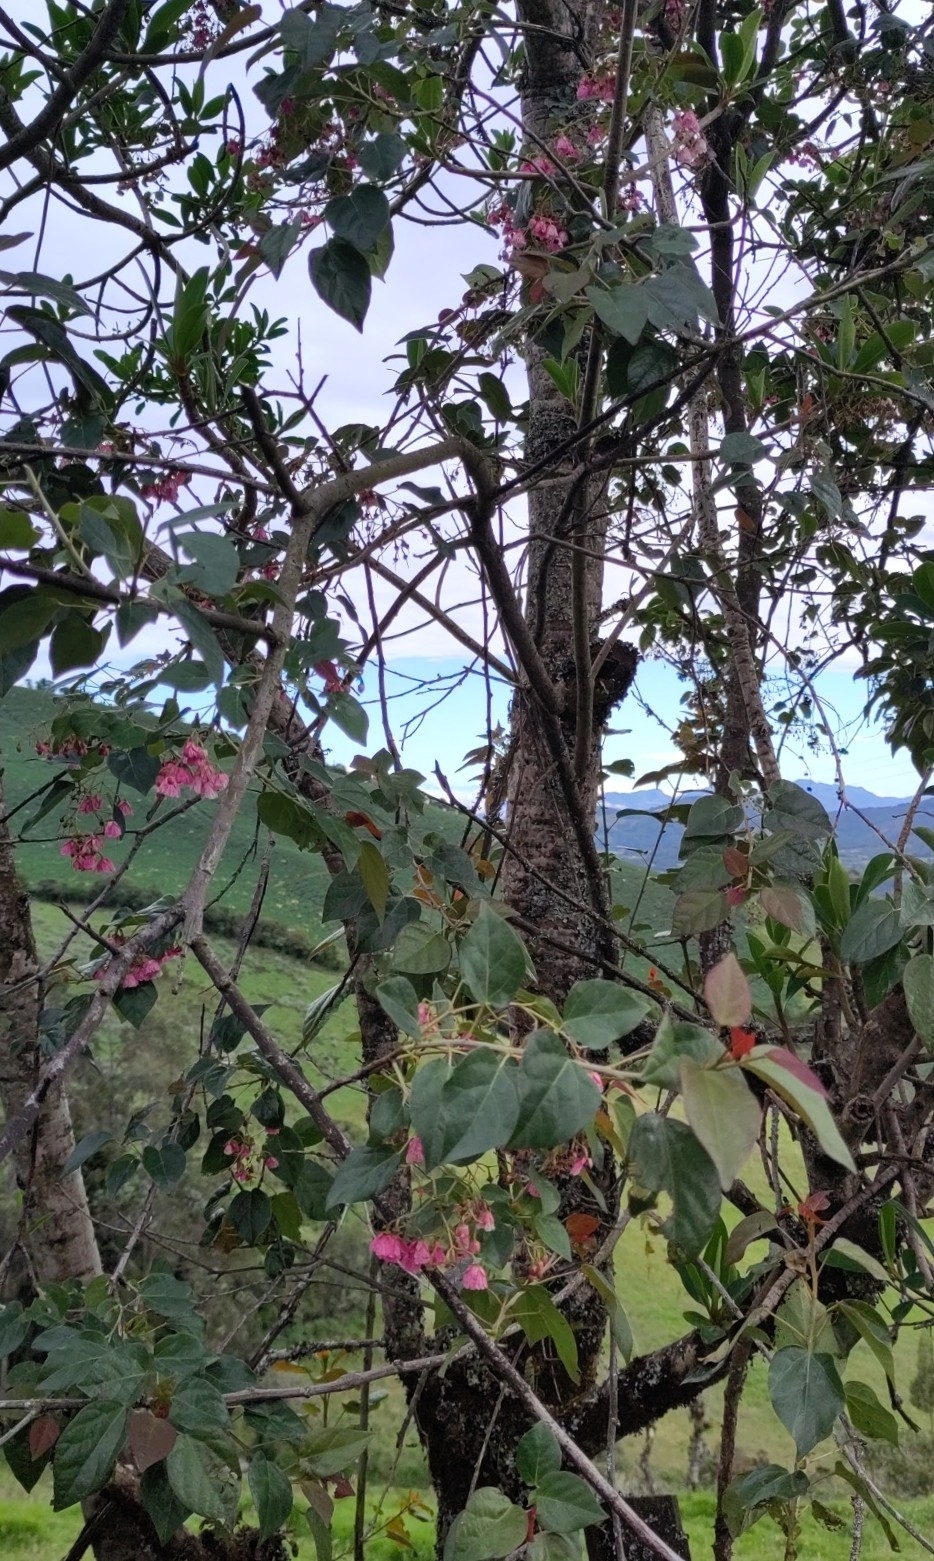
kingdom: Plantae
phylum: Tracheophyta
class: Magnoliopsida
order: Oxalidales
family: Elaeocarpaceae
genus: Vallea
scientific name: Vallea stipularis
